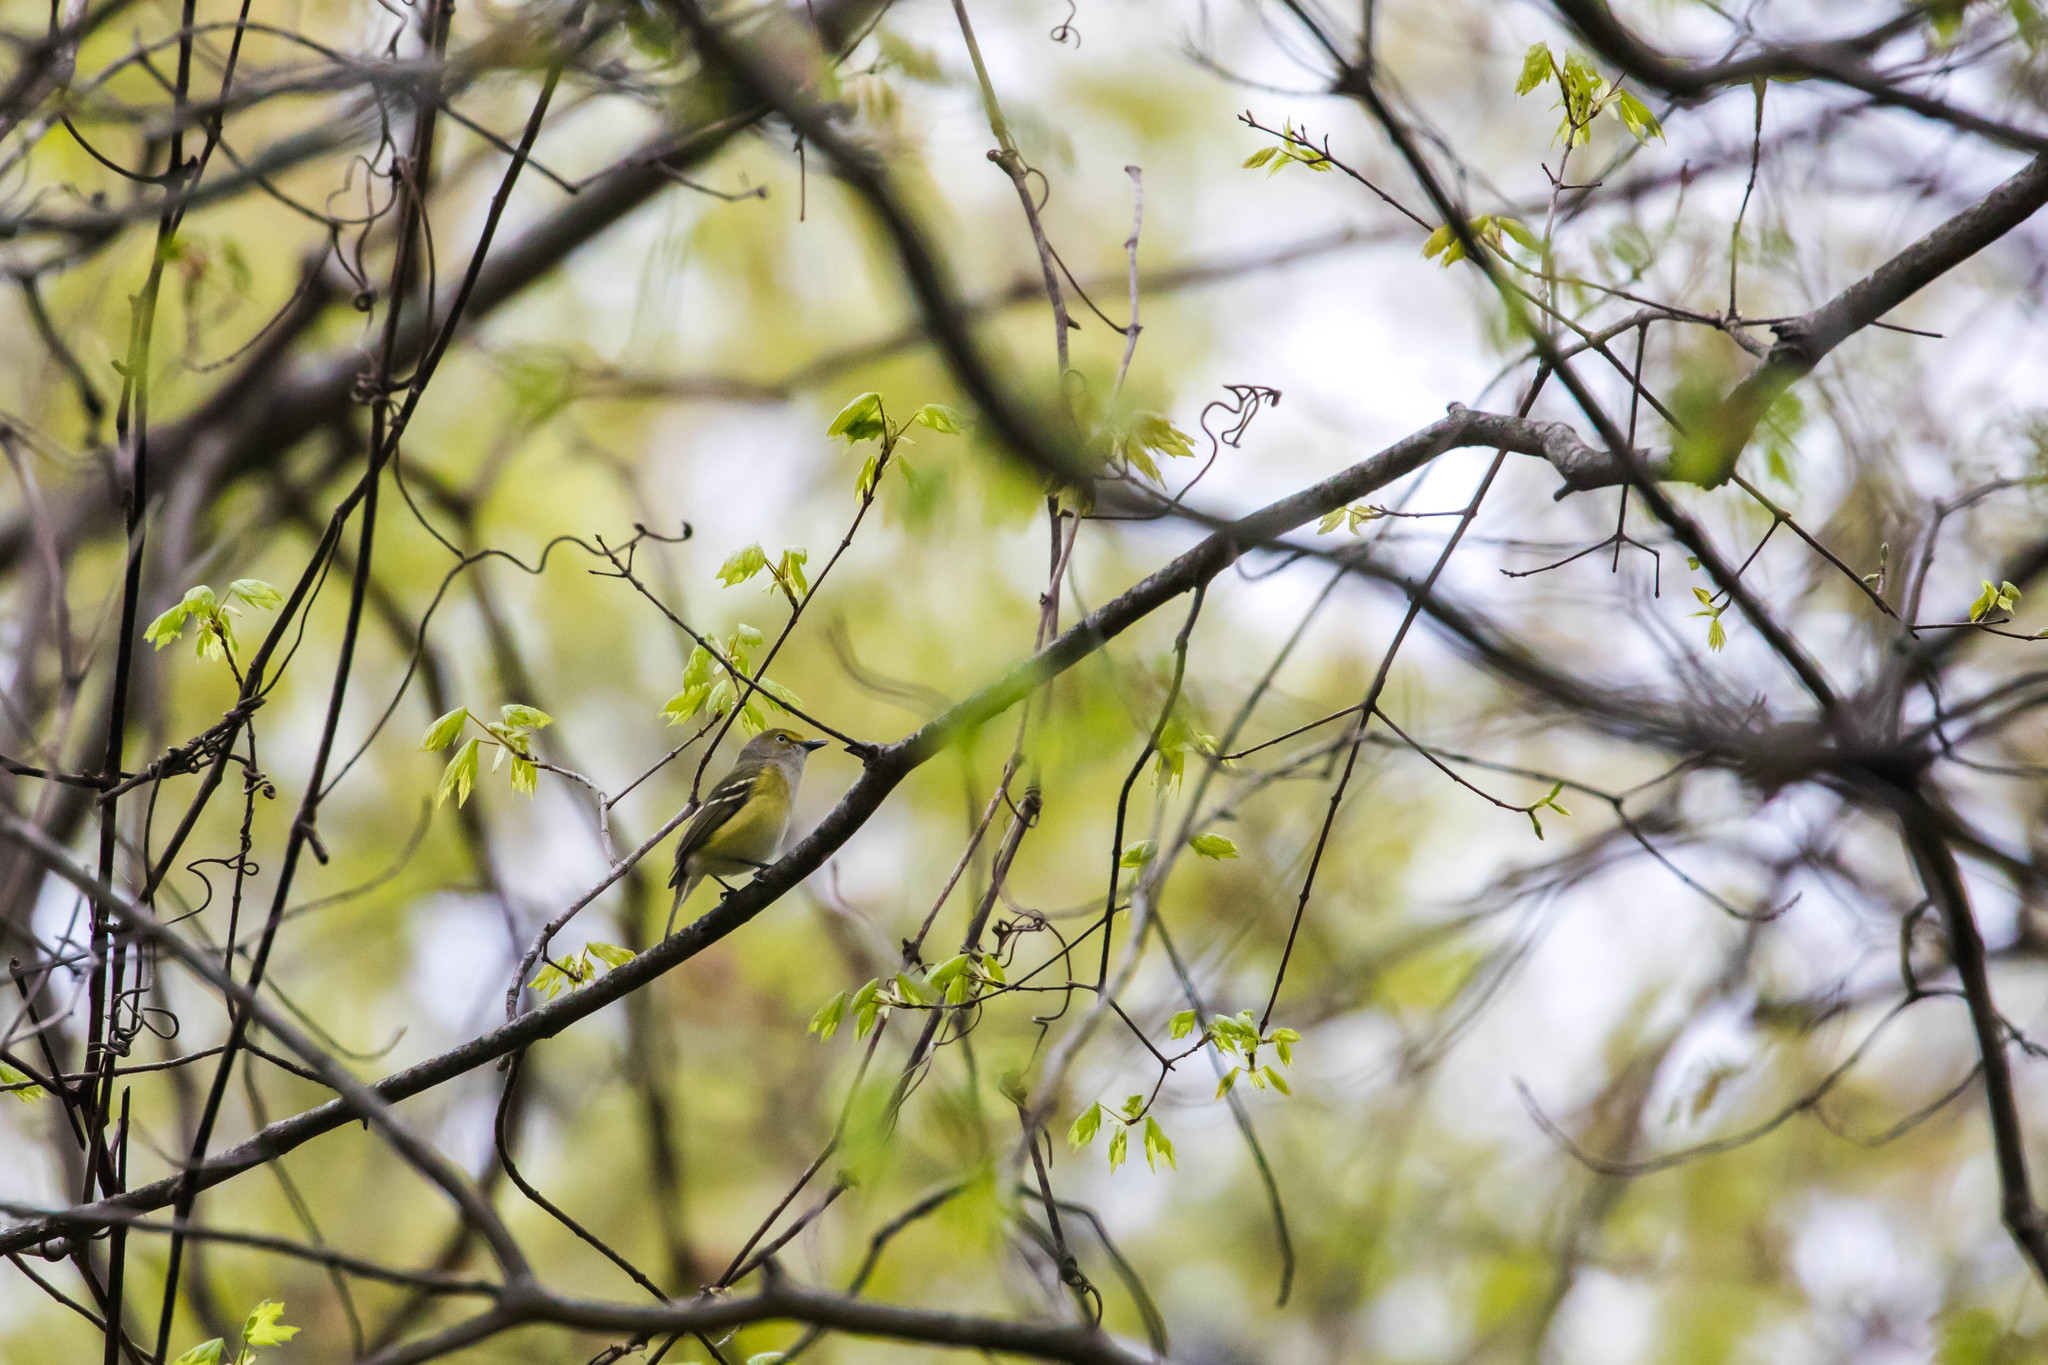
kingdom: Animalia
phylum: Chordata
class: Aves
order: Passeriformes
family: Vireonidae
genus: Vireo
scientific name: Vireo griseus
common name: White-eyed vireo
